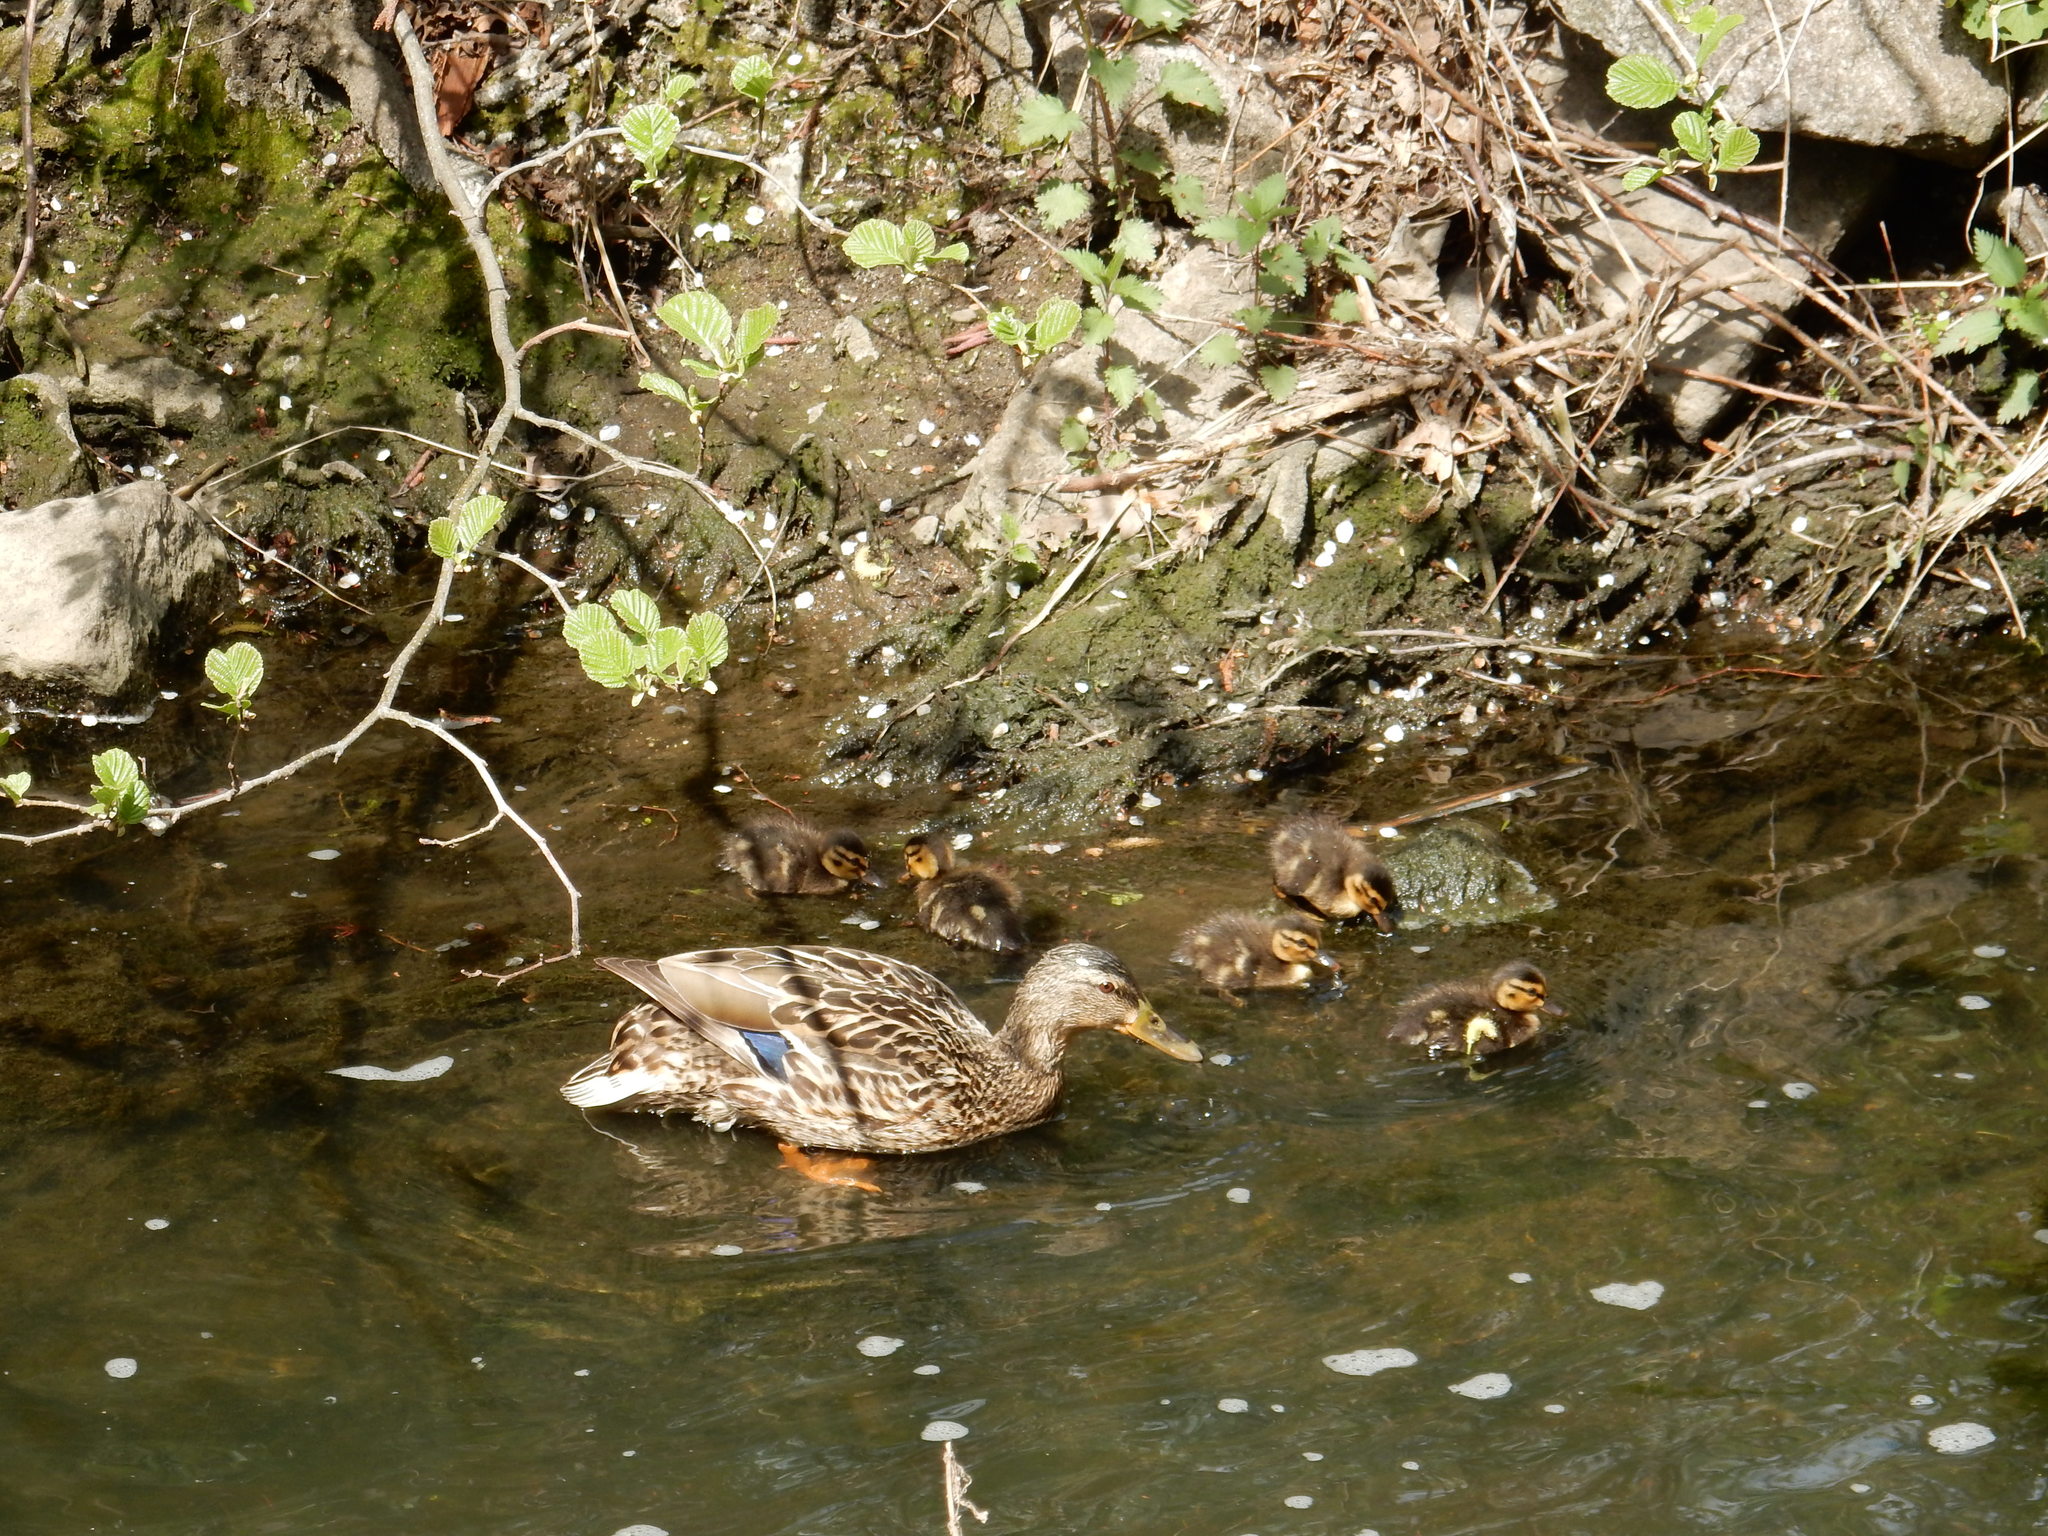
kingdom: Animalia
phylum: Chordata
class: Aves
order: Anseriformes
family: Anatidae
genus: Anas
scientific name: Anas platyrhynchos
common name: Mallard
